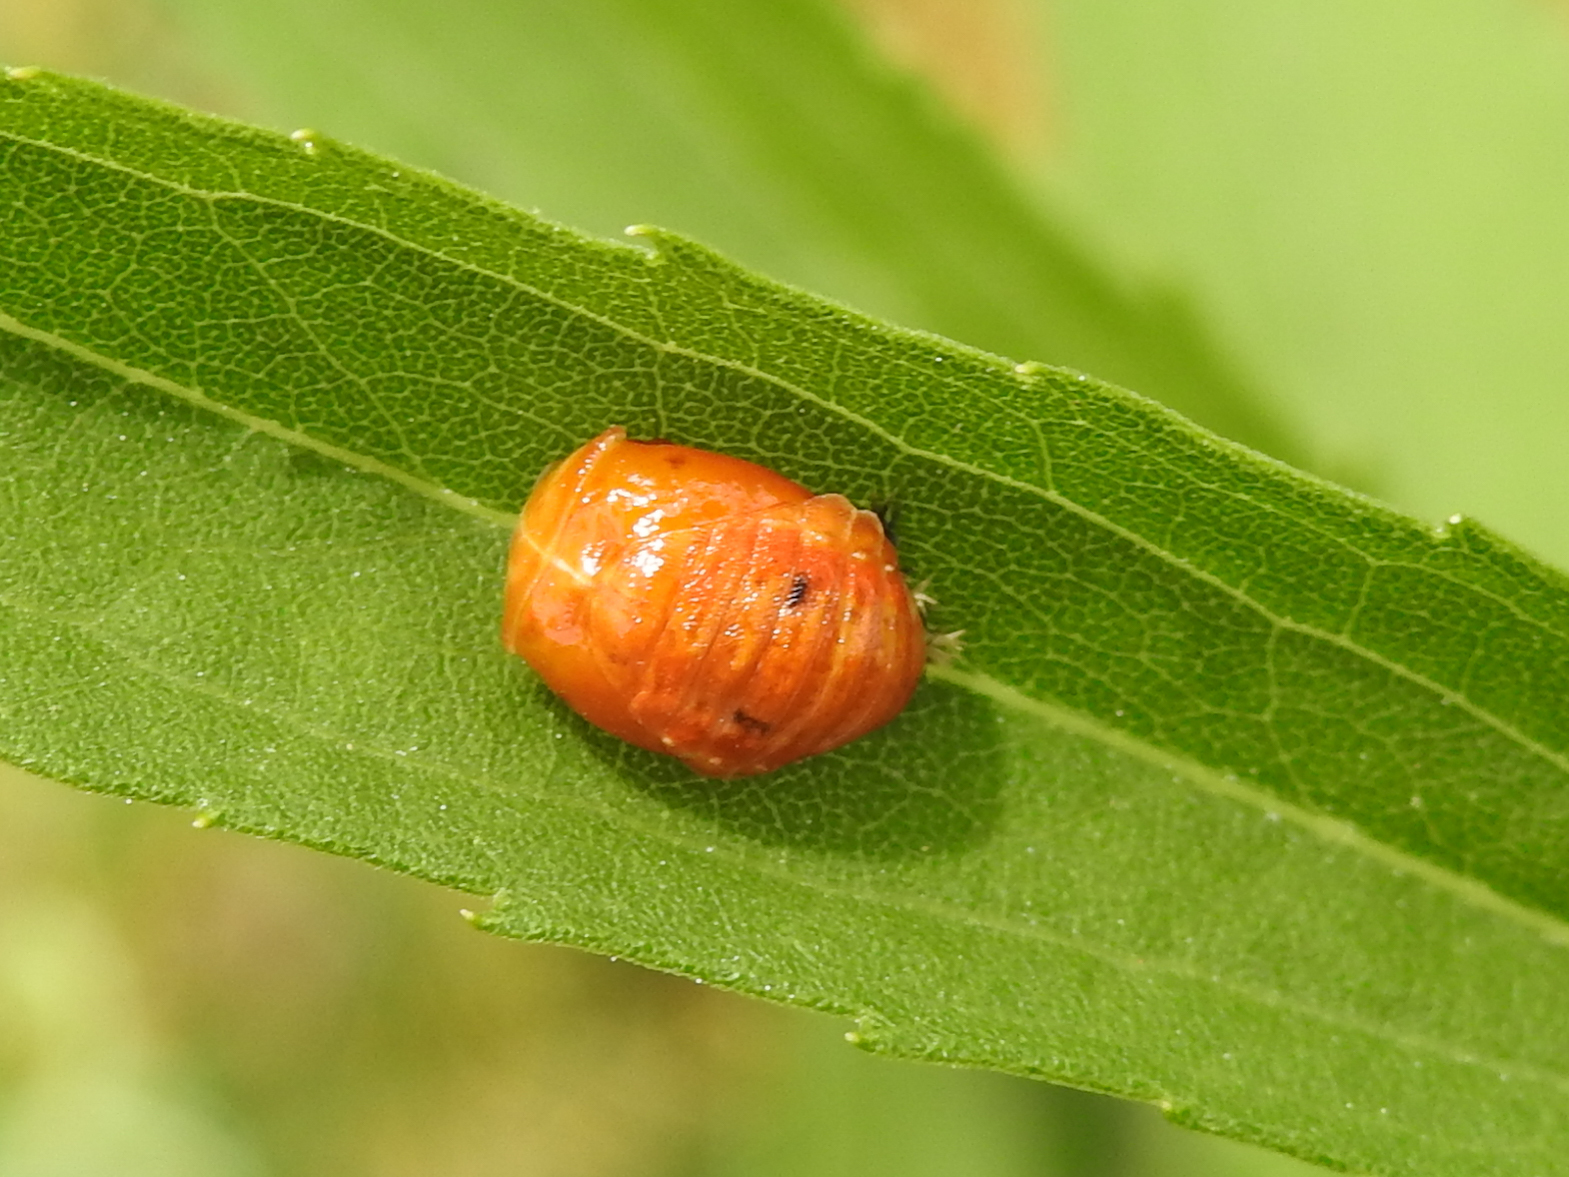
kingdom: Animalia
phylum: Arthropoda
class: Insecta
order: Coleoptera
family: Coccinellidae
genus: Harmonia
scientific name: Harmonia axyridis
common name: Harlequin ladybird
